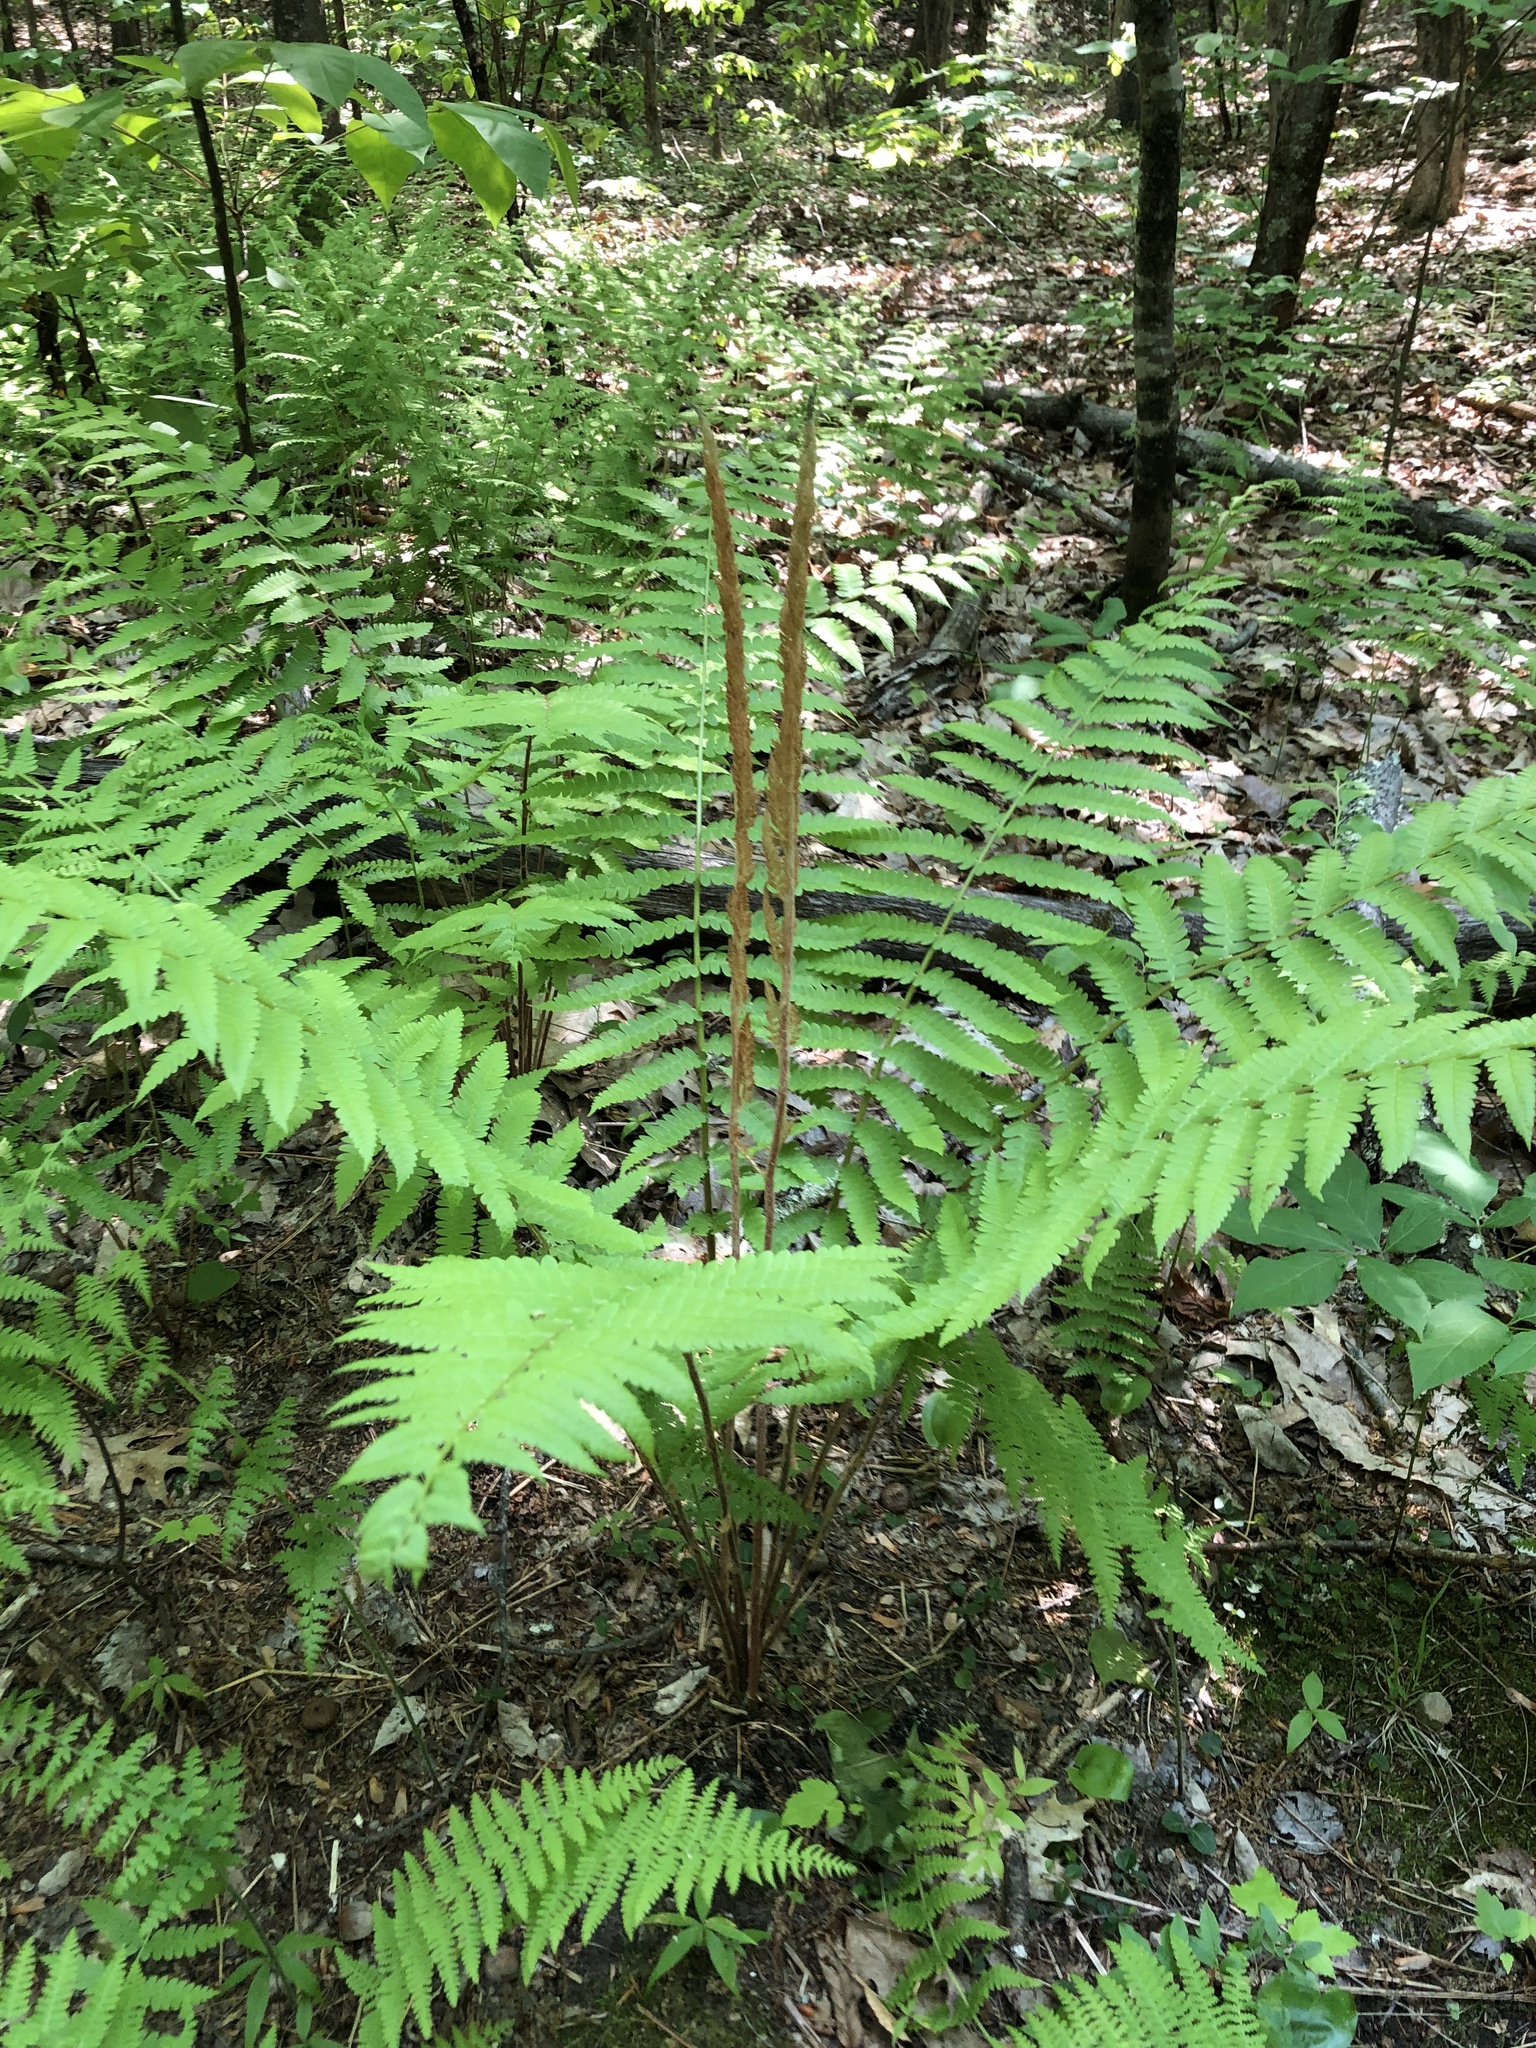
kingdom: Plantae
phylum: Tracheophyta
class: Polypodiopsida
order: Osmundales
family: Osmundaceae
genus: Osmundastrum
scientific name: Osmundastrum cinnamomeum
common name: Cinnamon fern
